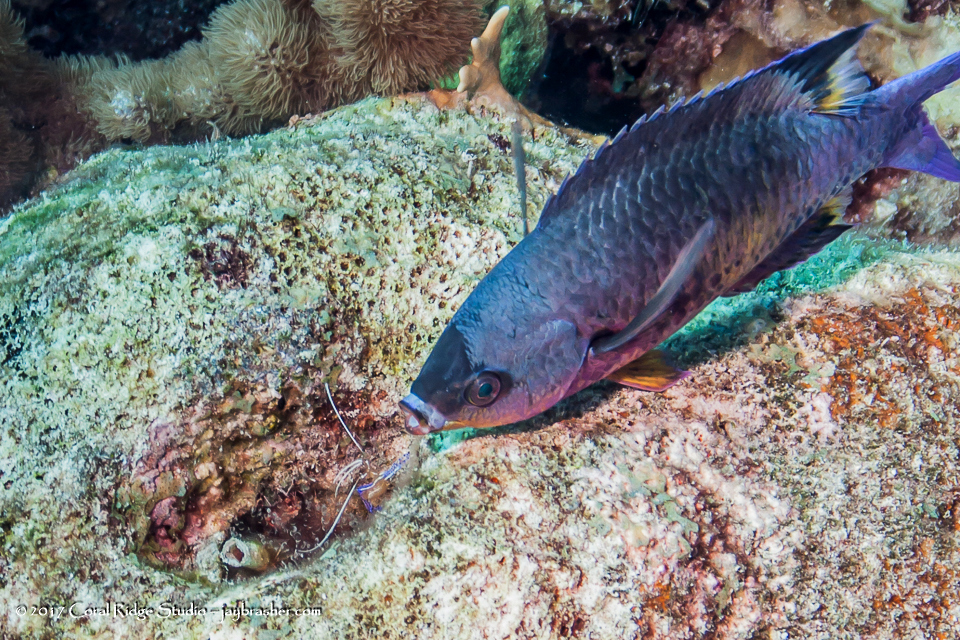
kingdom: Animalia
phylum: Arthropoda
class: Malacostraca
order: Decapoda
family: Palaemonidae
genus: Ancylomenes
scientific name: Ancylomenes pedersoni
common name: Pederson's cleaning shrimp
